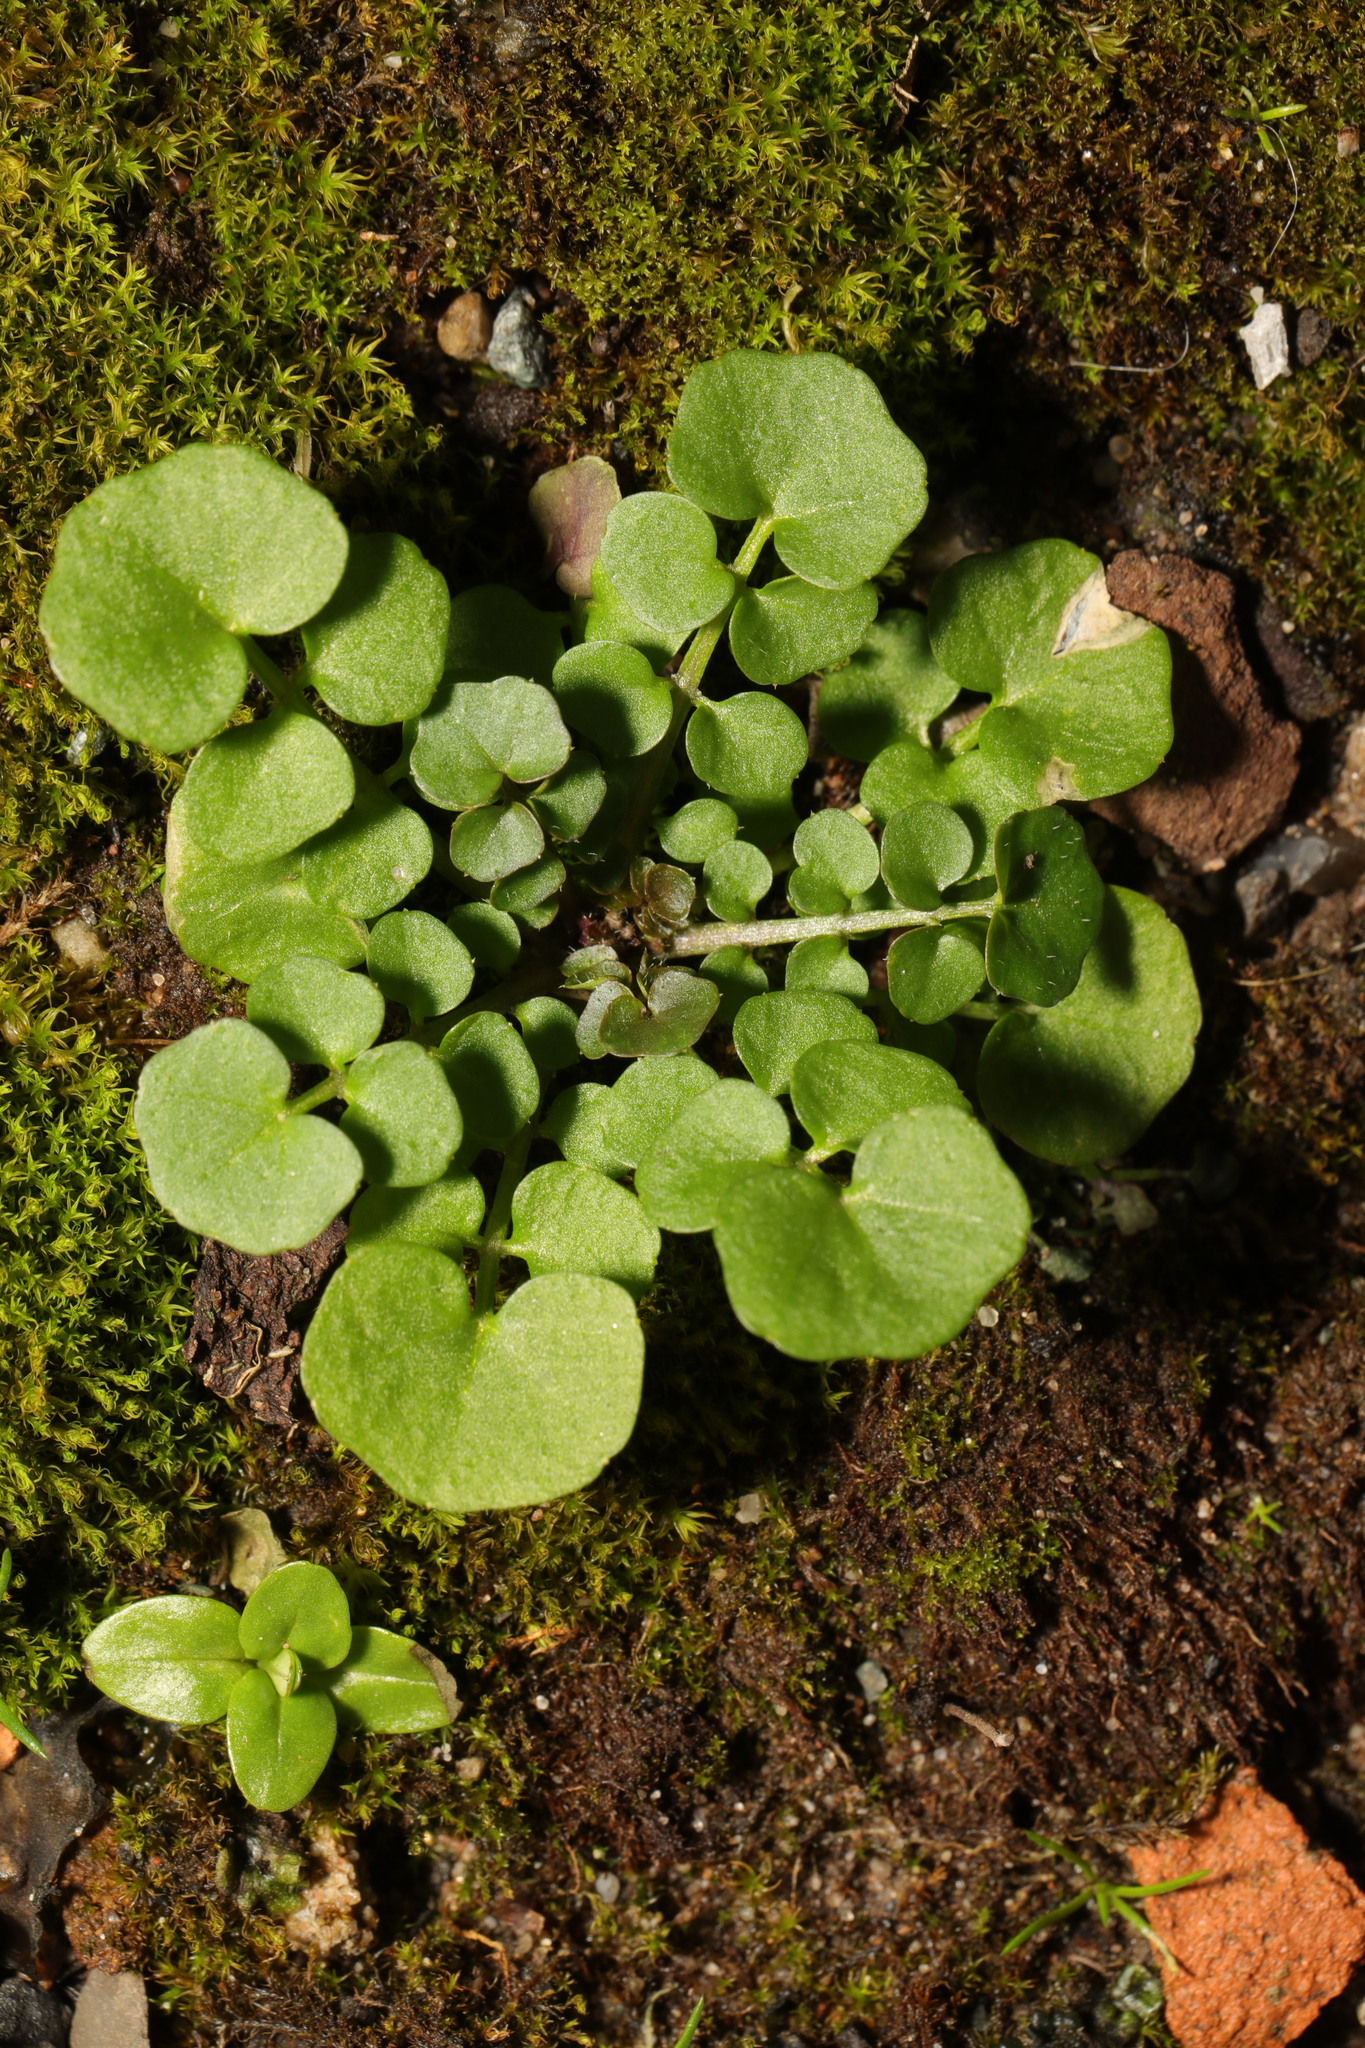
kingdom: Plantae
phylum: Tracheophyta
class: Magnoliopsida
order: Brassicales
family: Brassicaceae
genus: Cardamine
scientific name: Cardamine hirsuta
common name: Hairy bittercress
